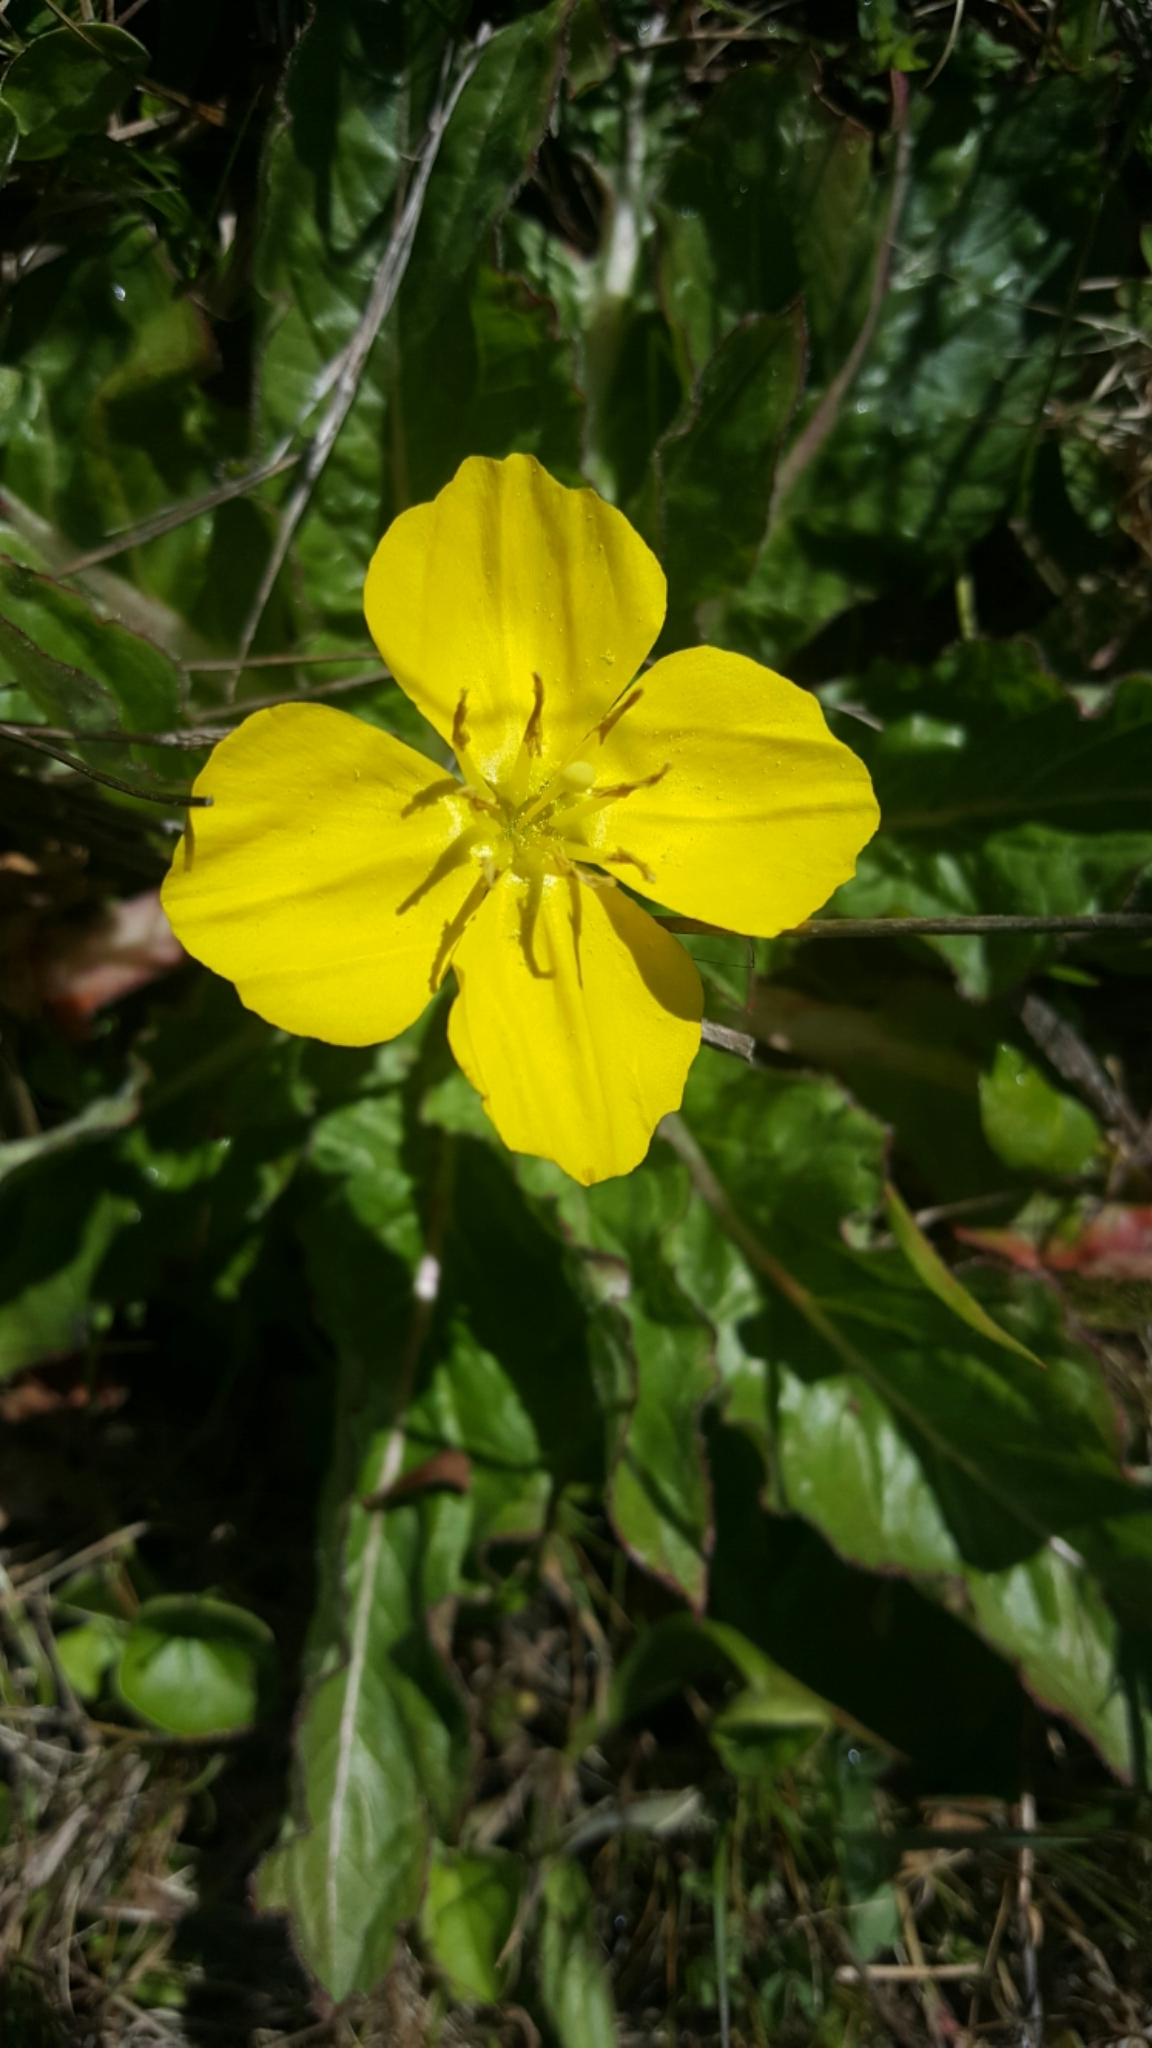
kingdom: Plantae
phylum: Tracheophyta
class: Magnoliopsida
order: Myrtales
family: Onagraceae
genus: Taraxia
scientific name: Taraxia ovata
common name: Goldeneggs
